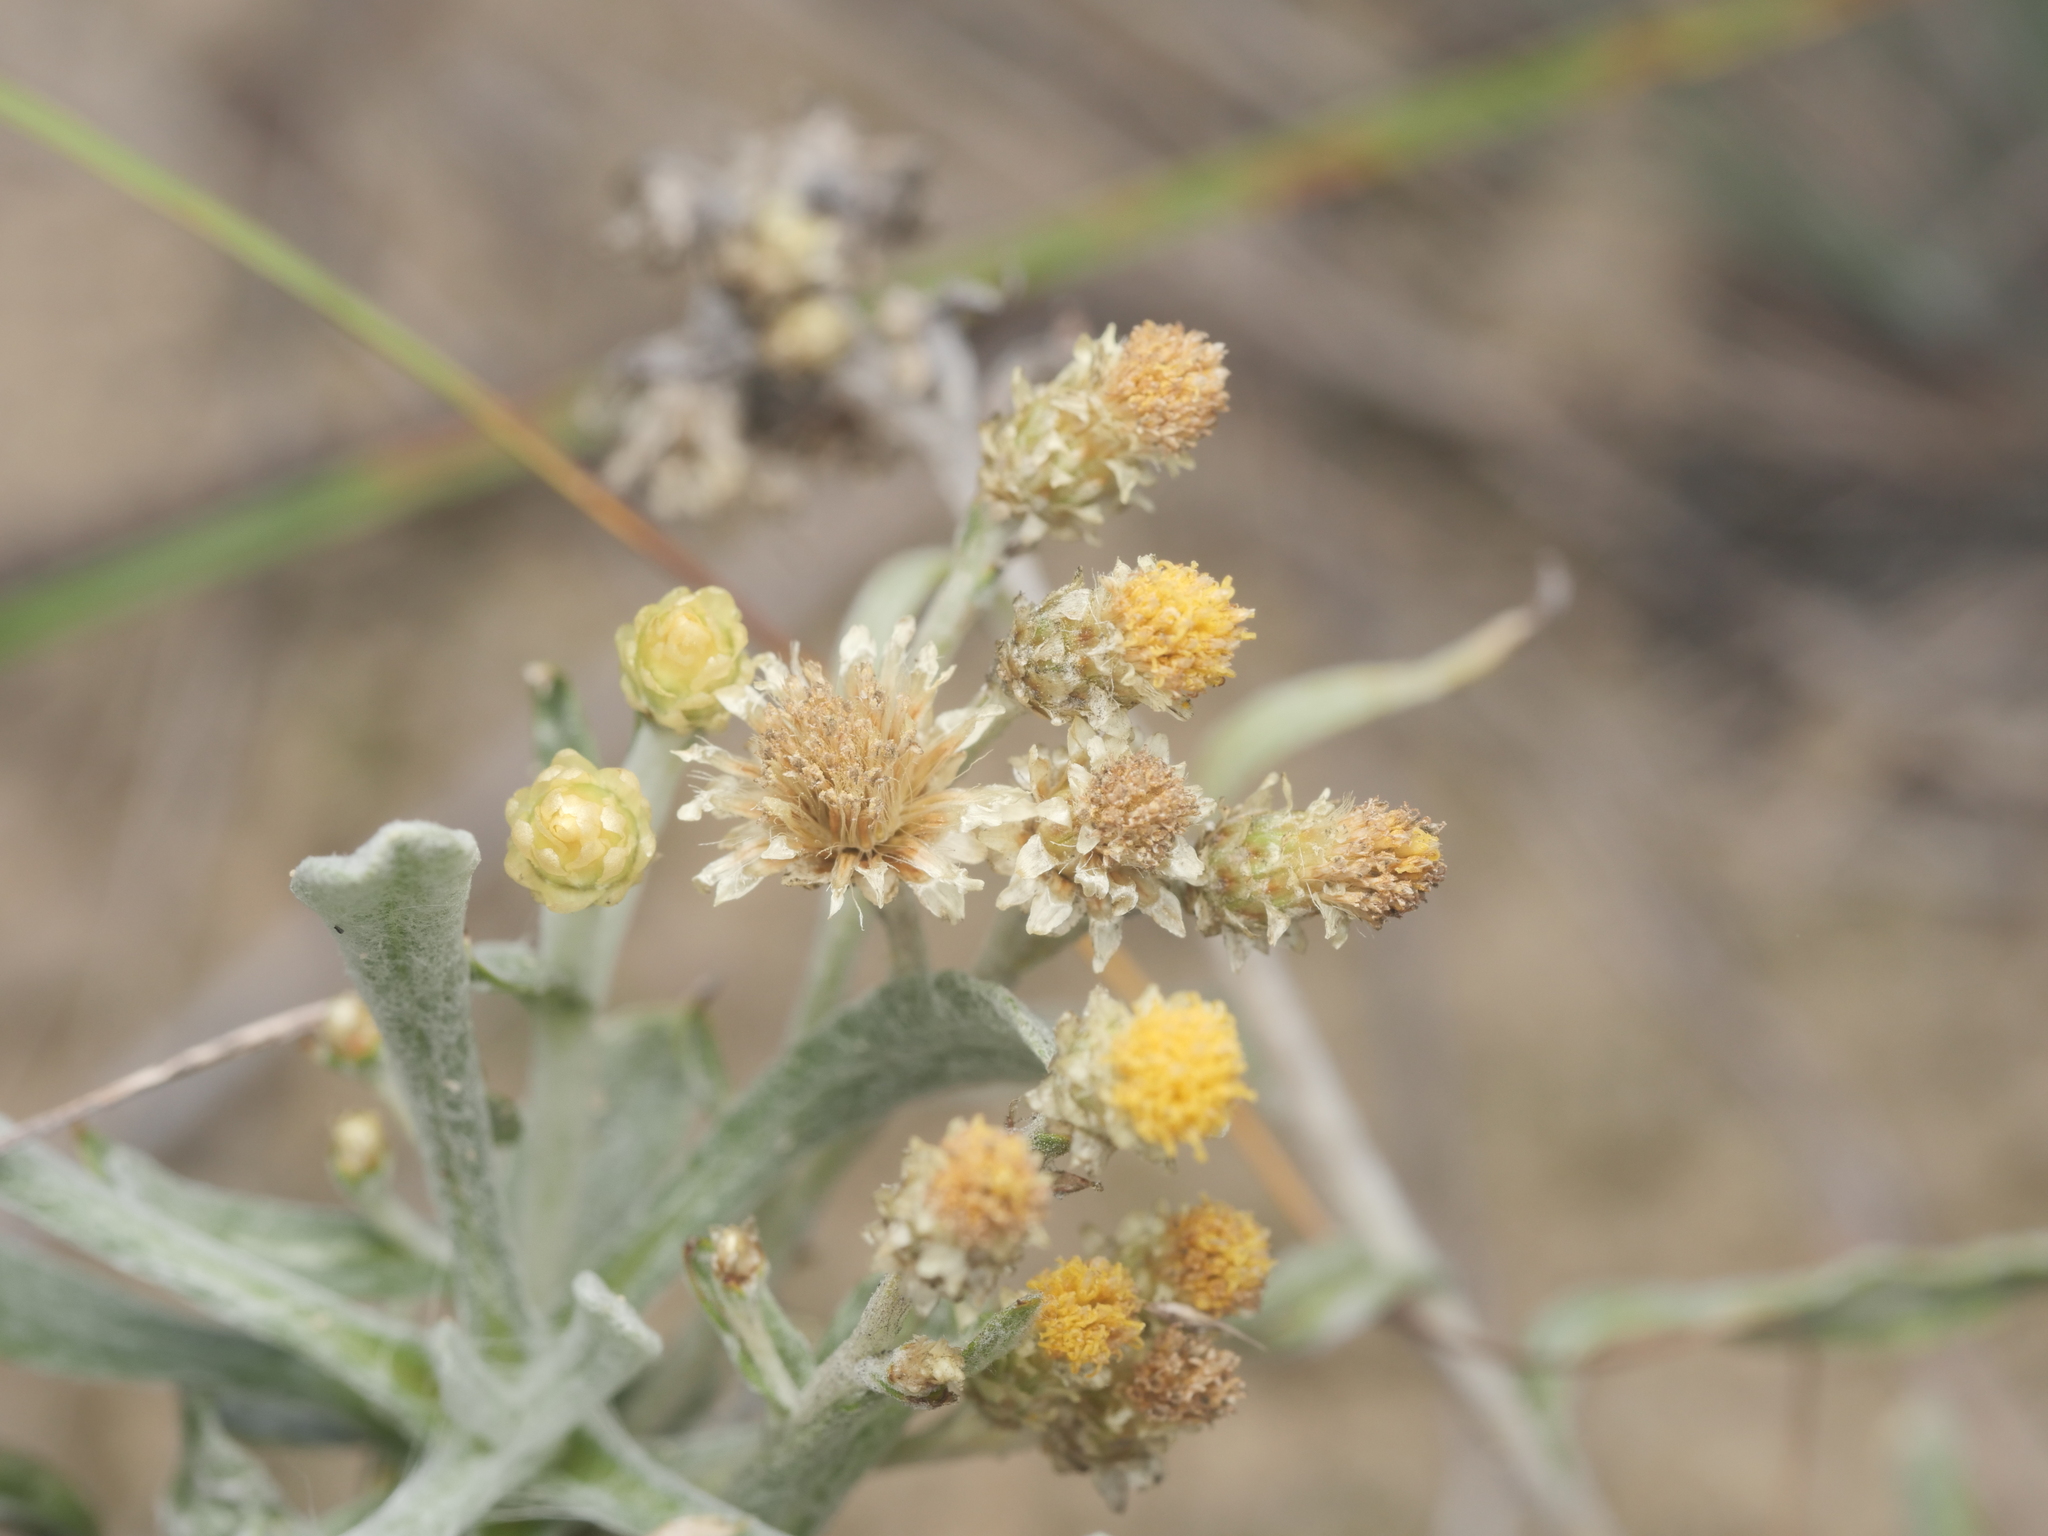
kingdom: Plantae
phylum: Tracheophyta
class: Magnoliopsida
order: Asterales
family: Asteraceae
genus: Helichrysum
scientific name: Helichrysum arenarium
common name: Strawflower
